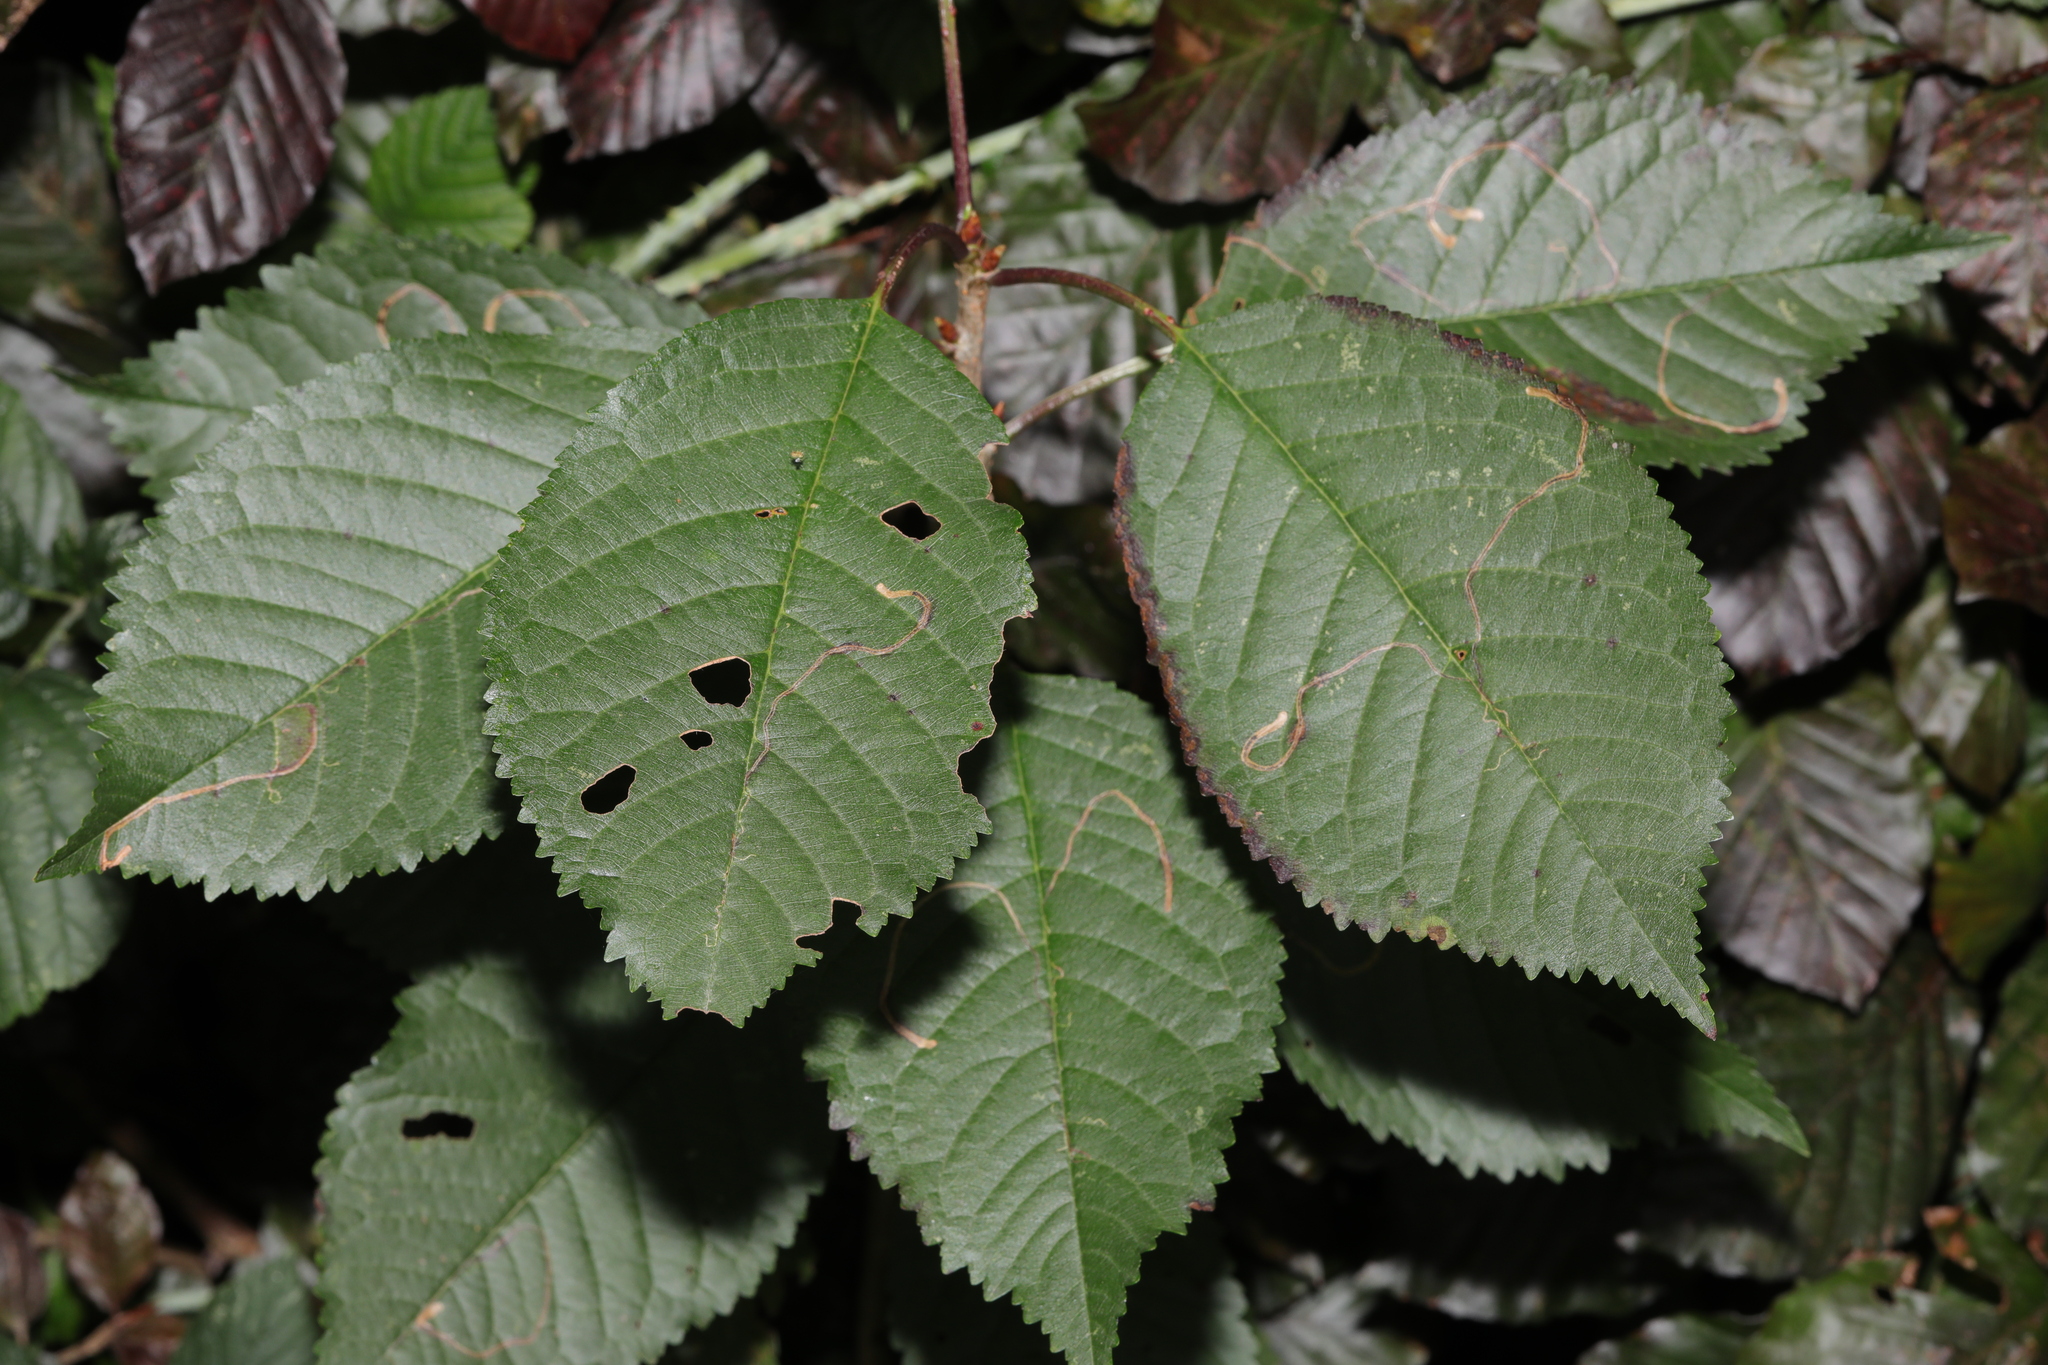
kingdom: Plantae
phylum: Tracheophyta
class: Magnoliopsida
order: Rosales
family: Rosaceae
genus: Prunus
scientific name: Prunus avium
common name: Sweet cherry
